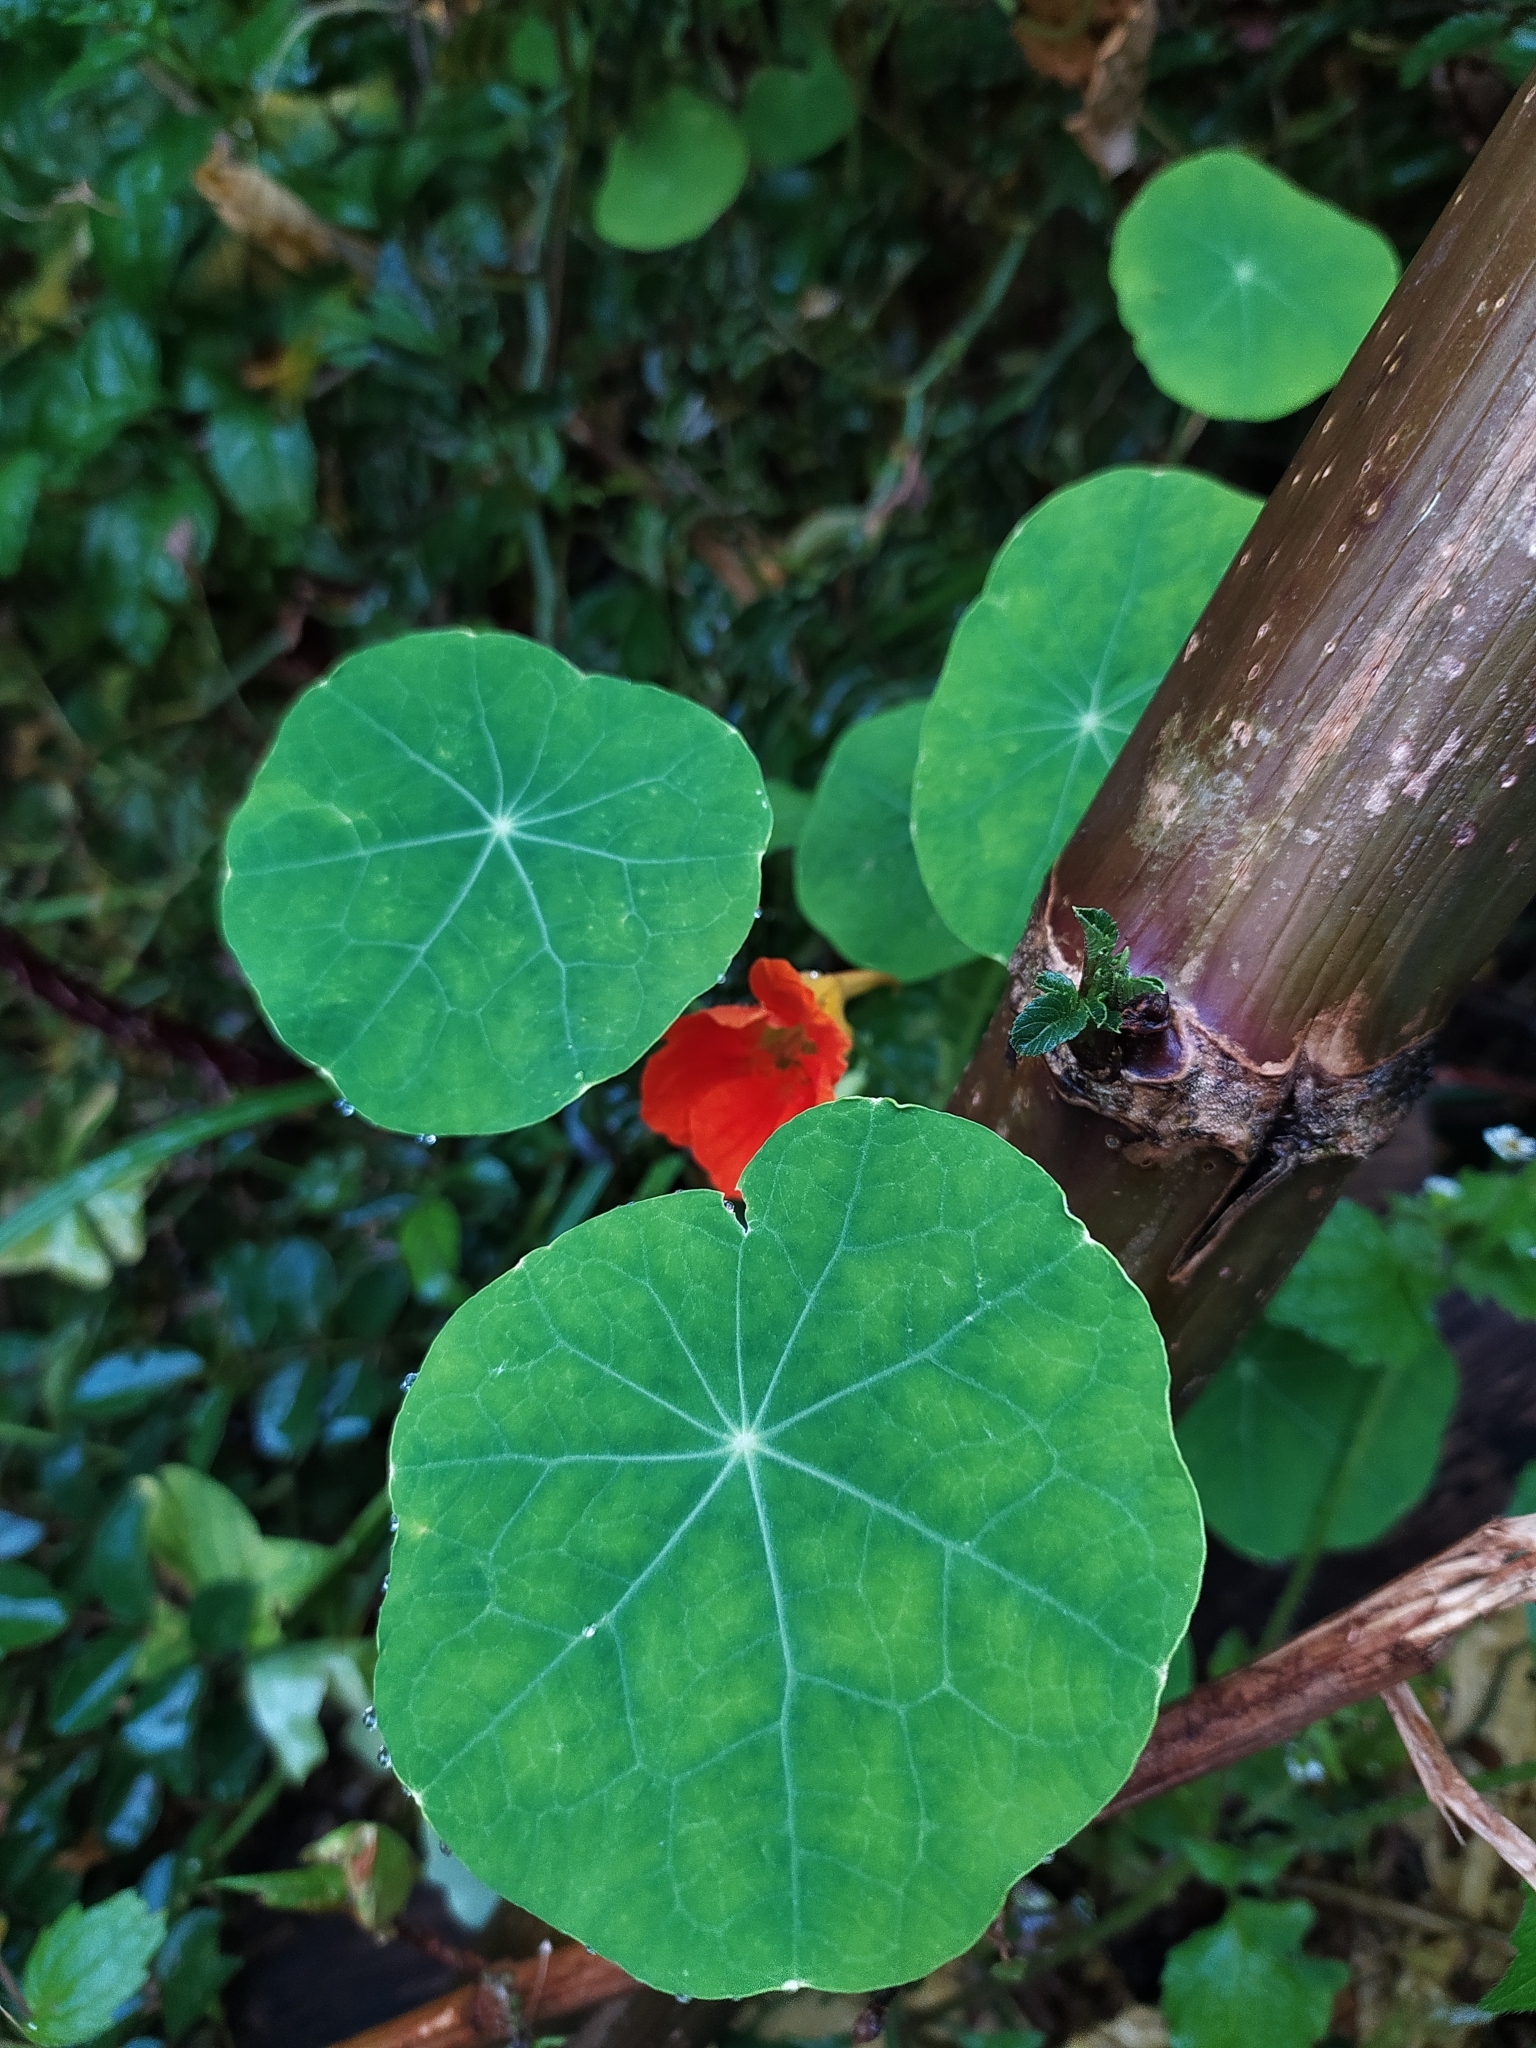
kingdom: Plantae
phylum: Tracheophyta
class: Magnoliopsida
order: Brassicales
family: Tropaeolaceae
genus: Tropaeolum
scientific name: Tropaeolum majus
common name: Nasturtium
